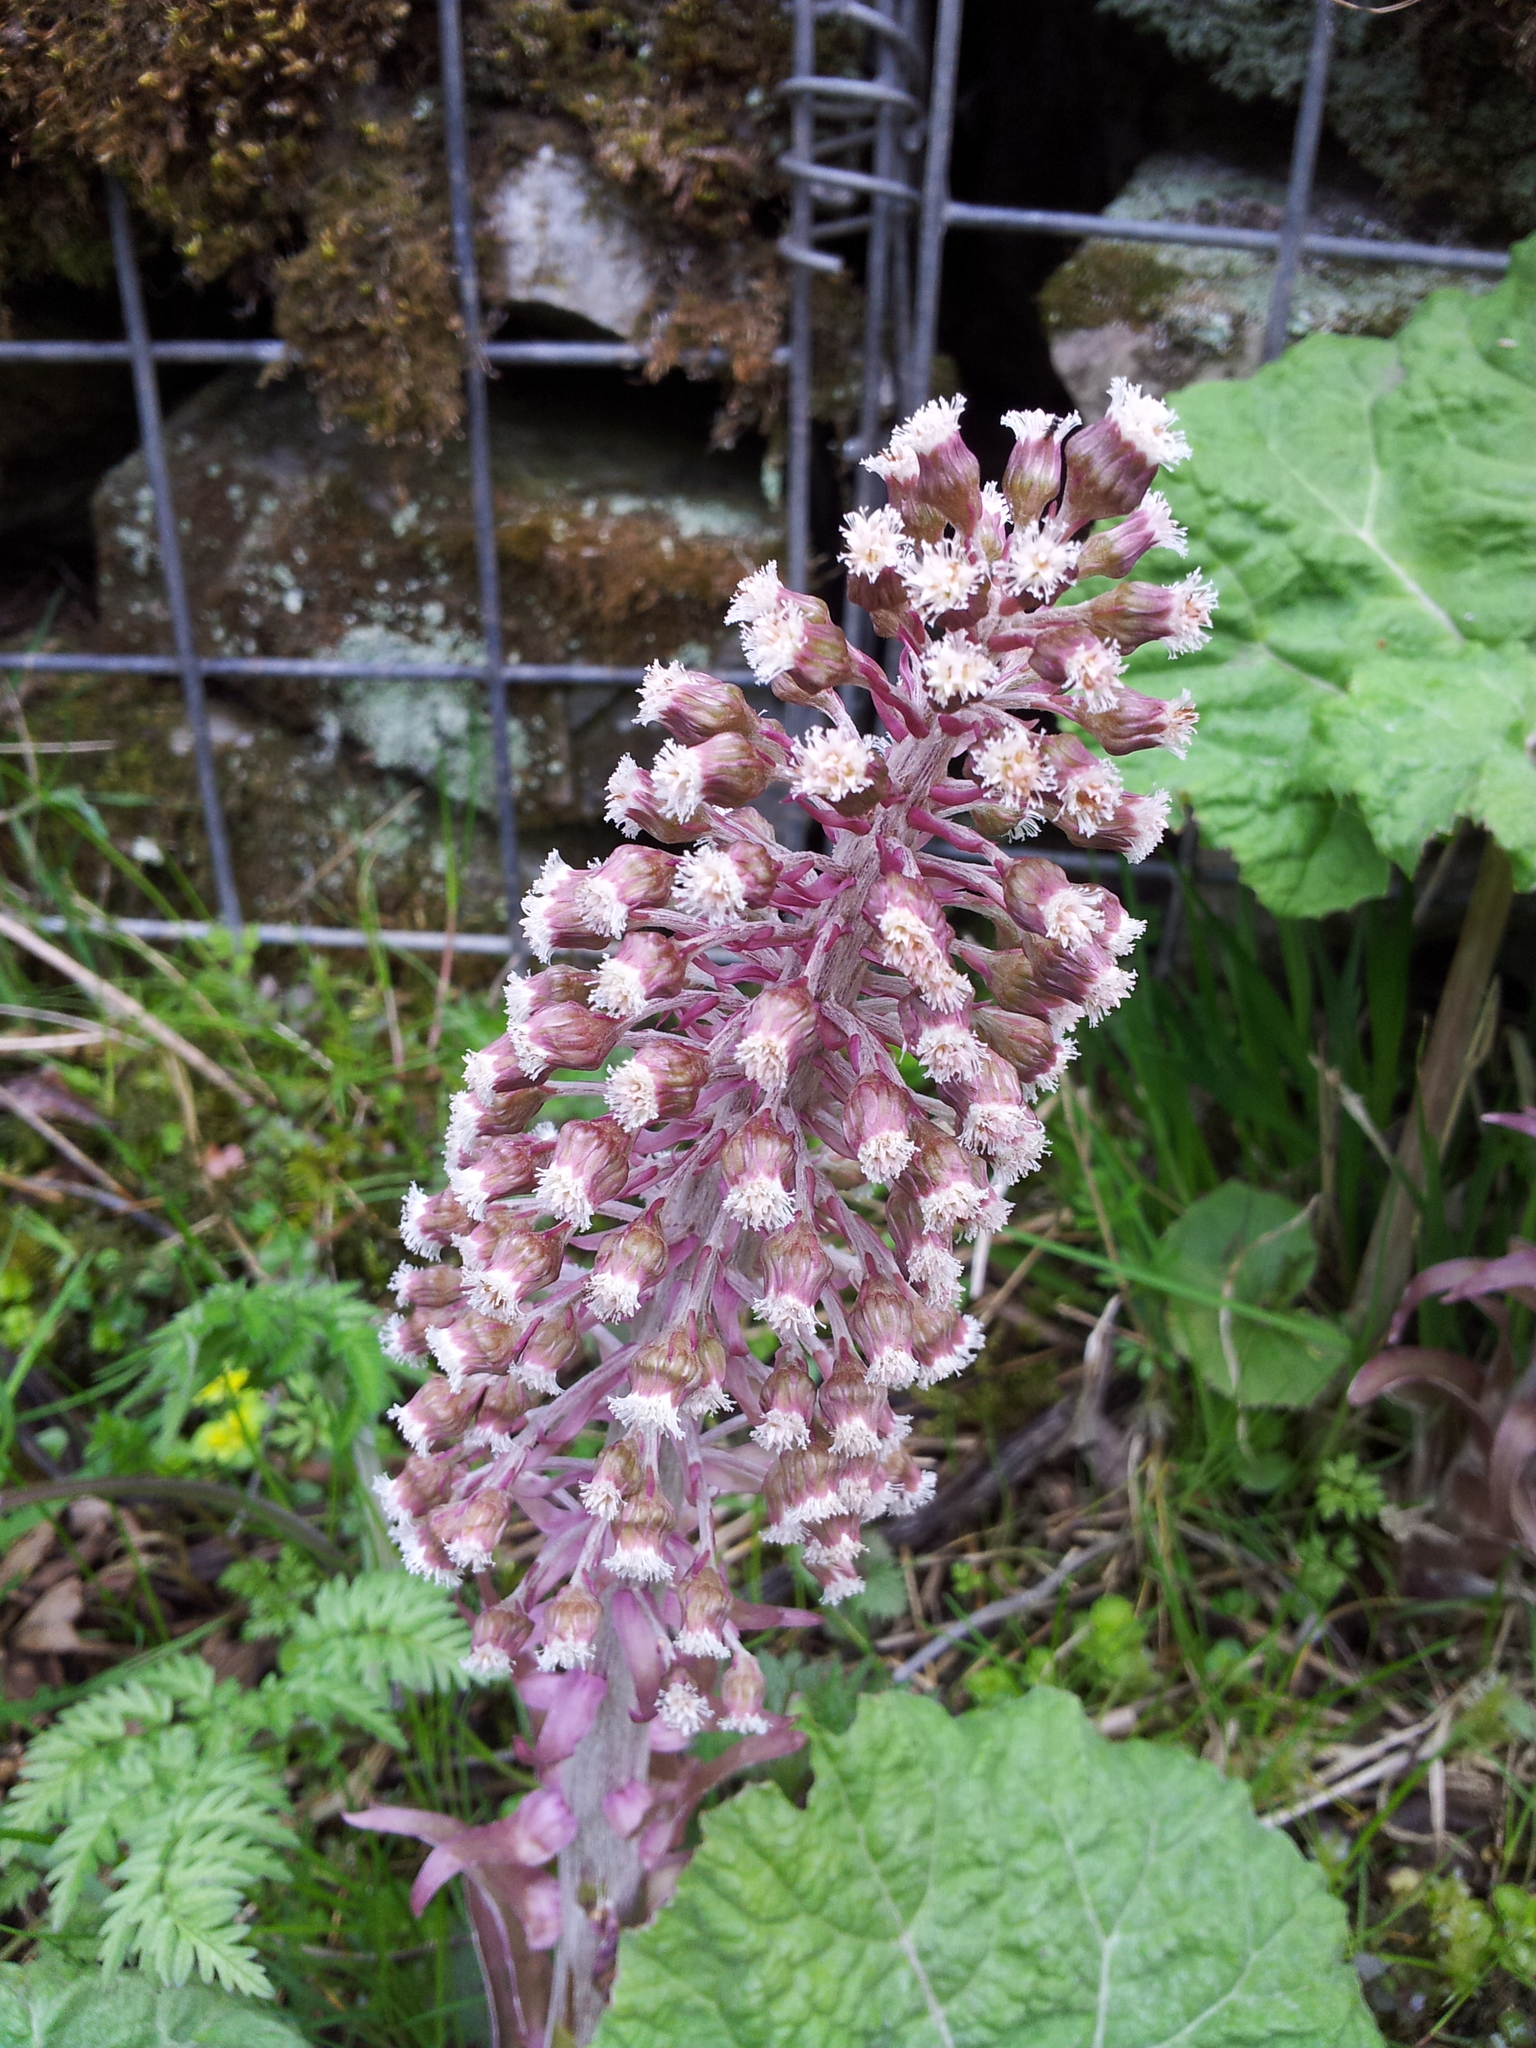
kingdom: Plantae
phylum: Tracheophyta
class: Magnoliopsida
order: Asterales
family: Asteraceae
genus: Petasites
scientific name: Petasites hybridus
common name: Butterbur
